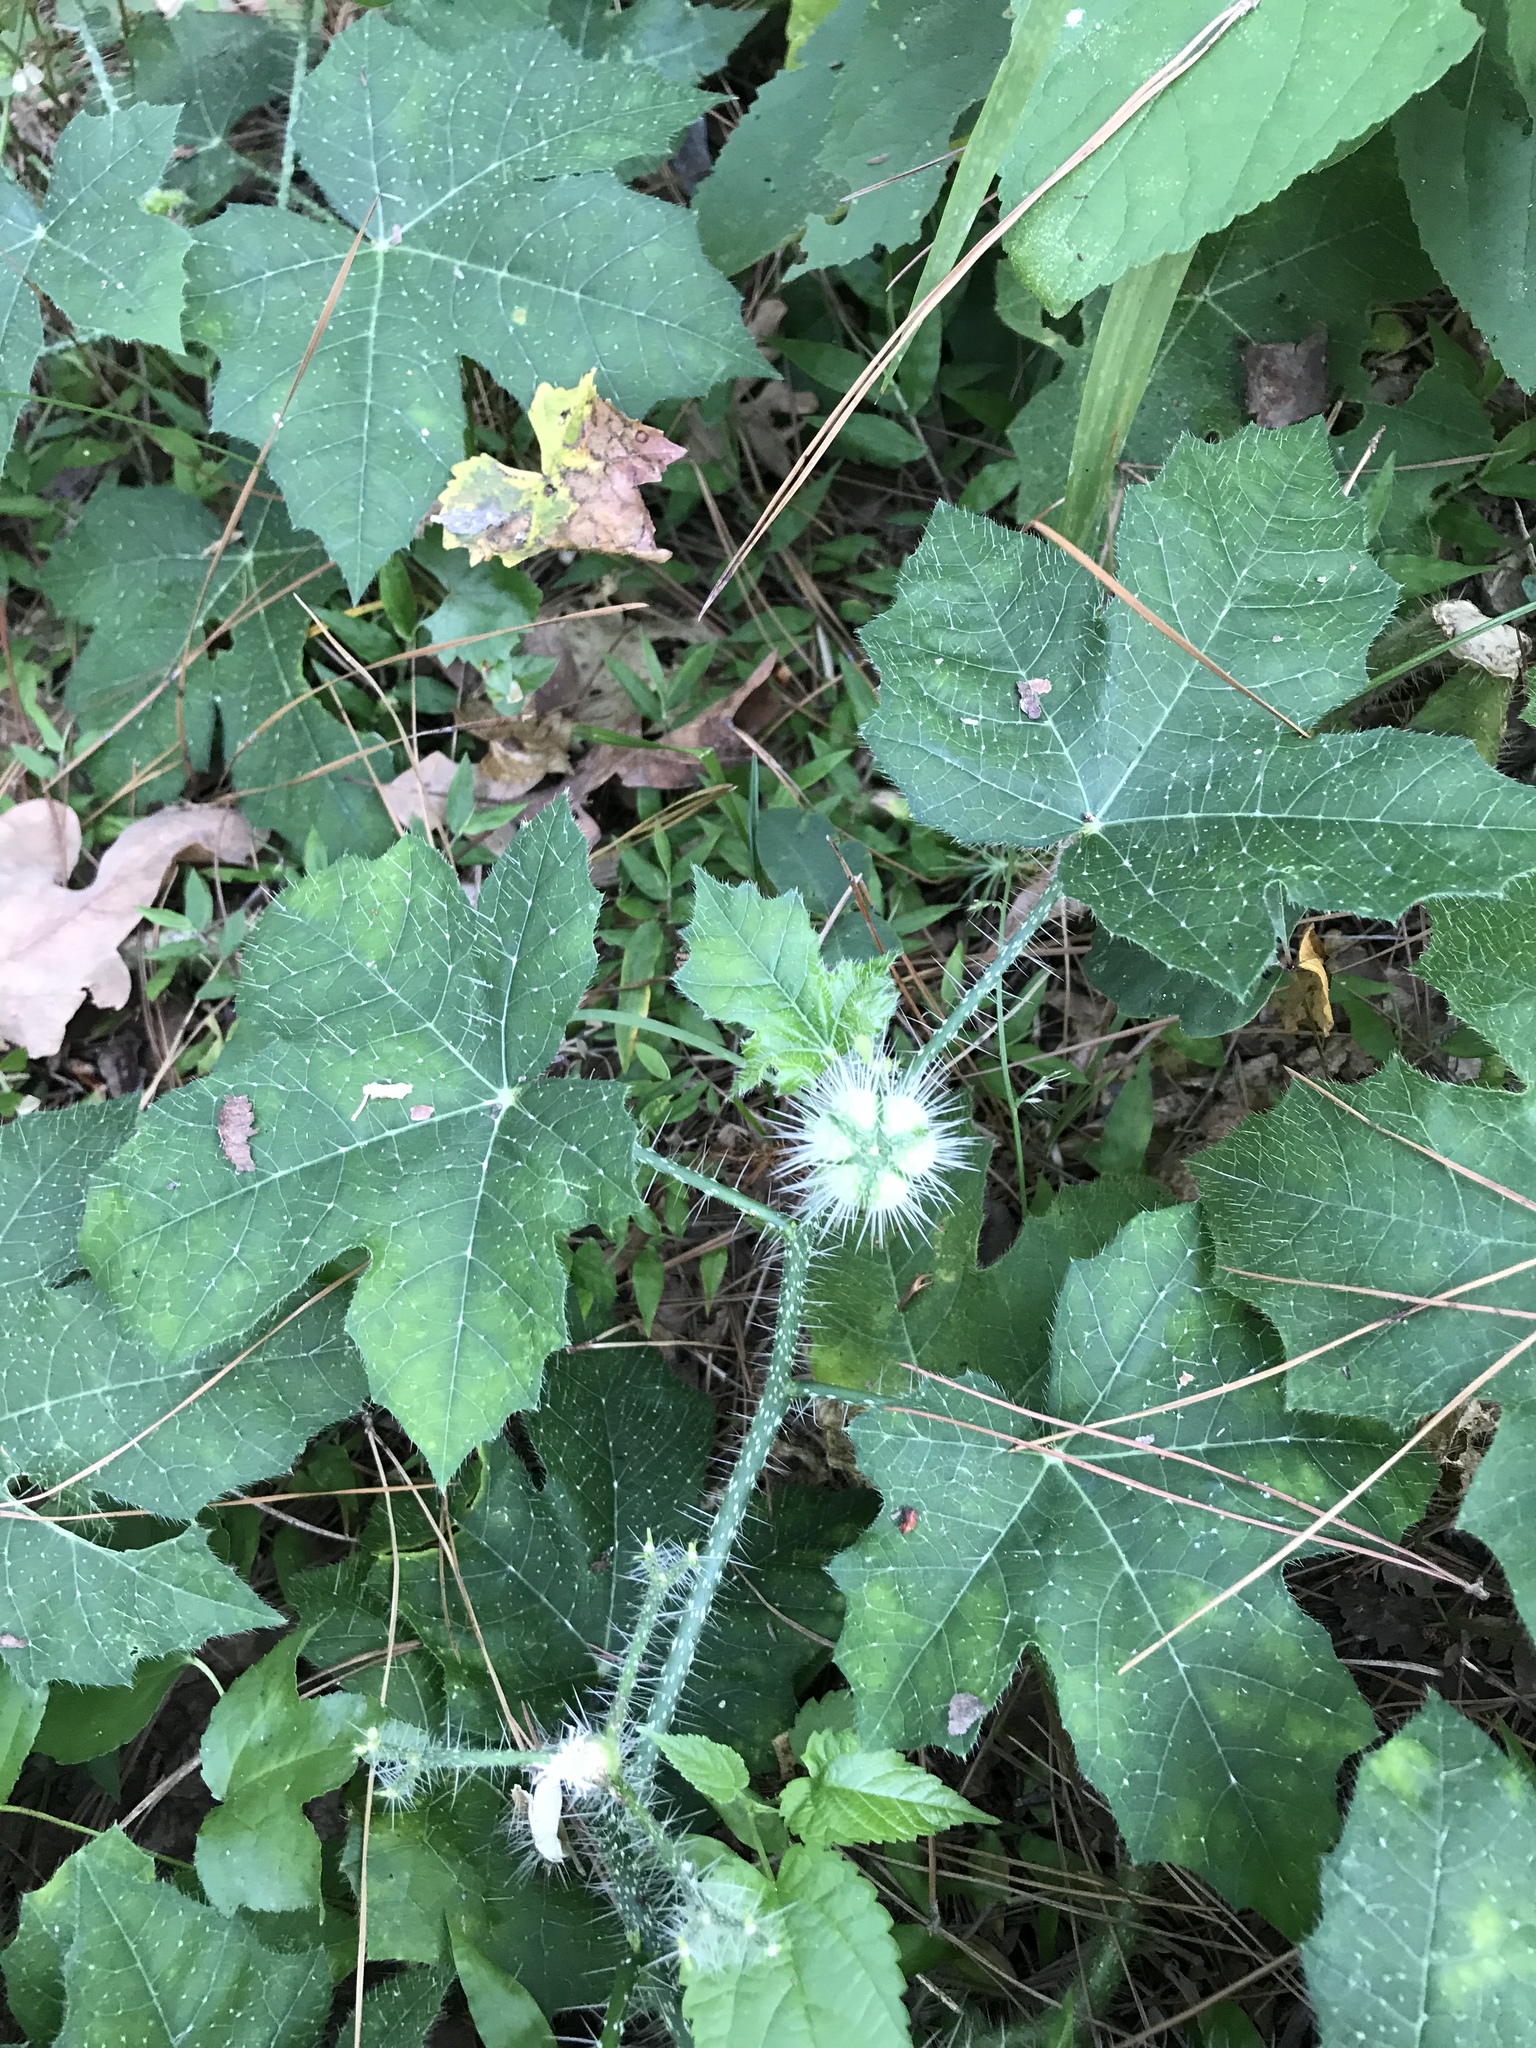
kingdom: Plantae
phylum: Tracheophyta
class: Magnoliopsida
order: Malpighiales
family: Euphorbiaceae
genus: Cnidoscolus
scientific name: Cnidoscolus texanus
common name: Texas bull-nettle
